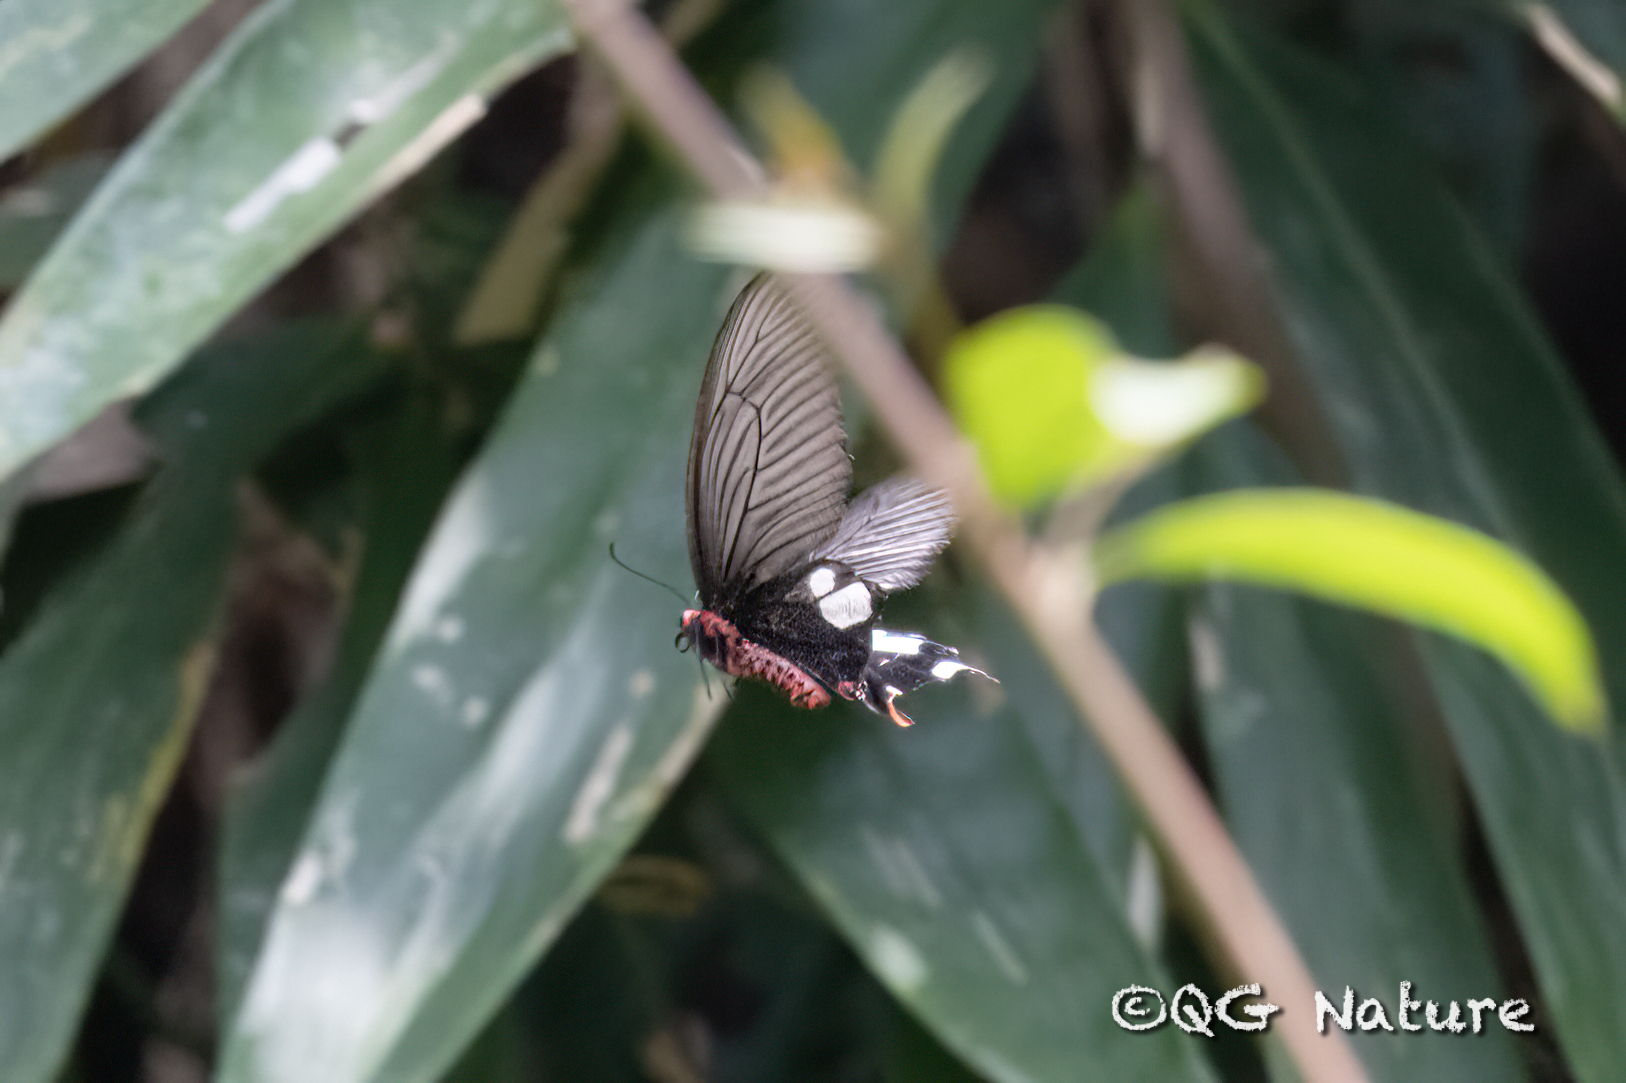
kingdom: Animalia
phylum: Arthropoda
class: Insecta
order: Lepidoptera
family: Papilionidae
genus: Byasa
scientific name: Byasa hedistus
